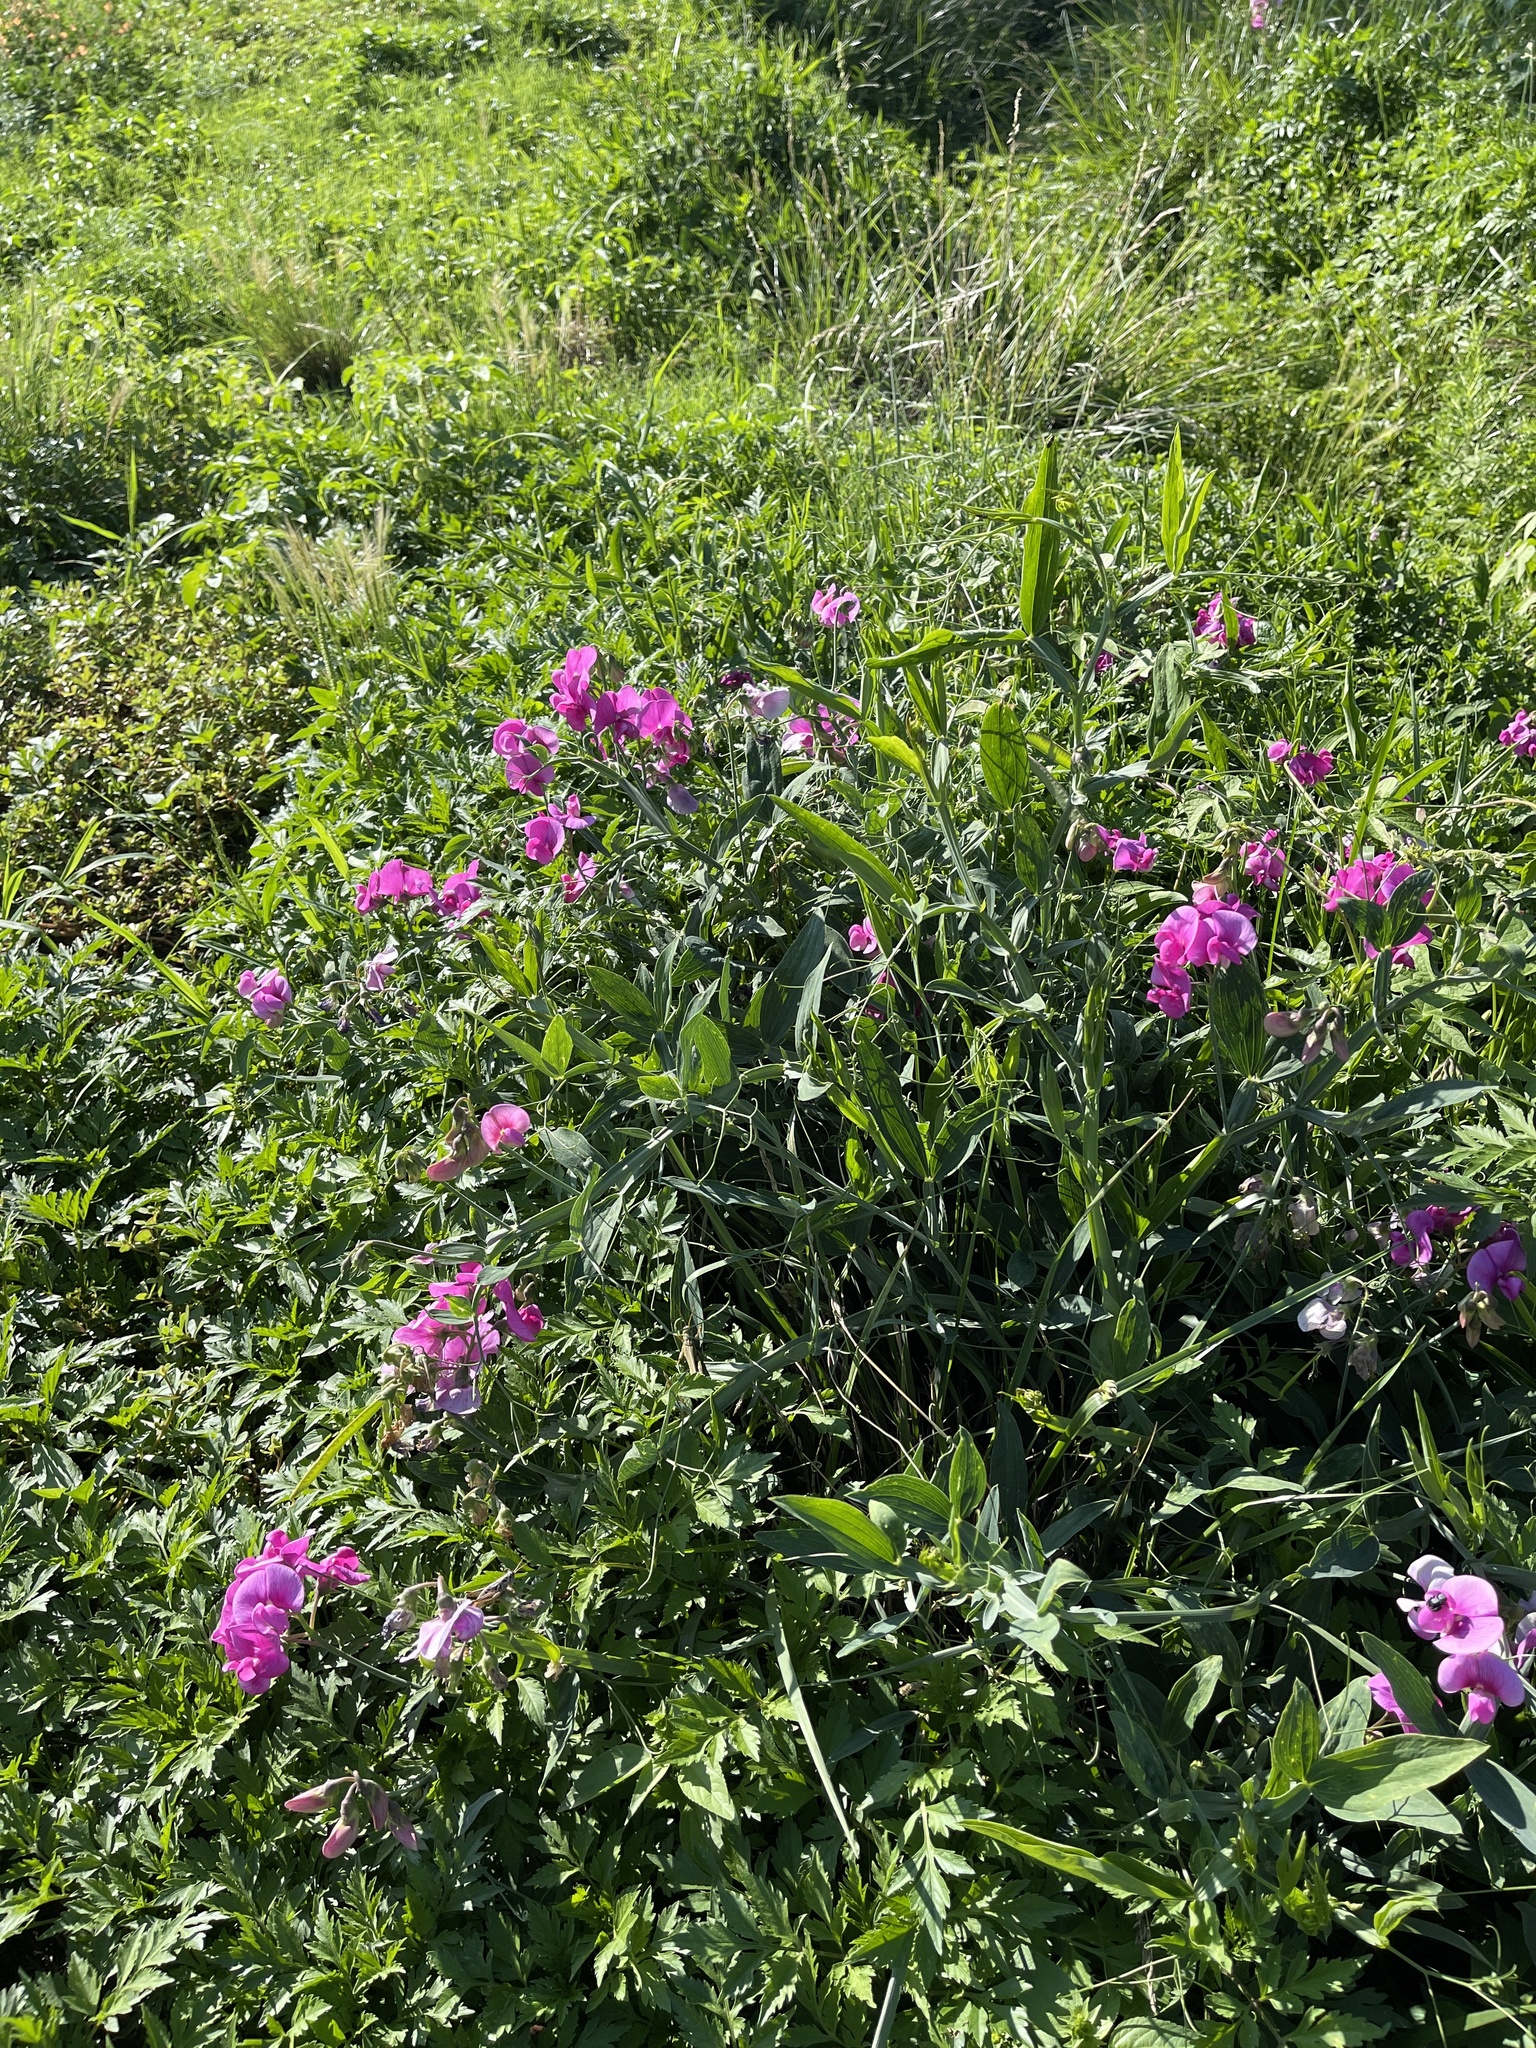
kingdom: Plantae
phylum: Tracheophyta
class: Magnoliopsida
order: Fabales
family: Fabaceae
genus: Lathyrus
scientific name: Lathyrus latifolius
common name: Perennial pea
